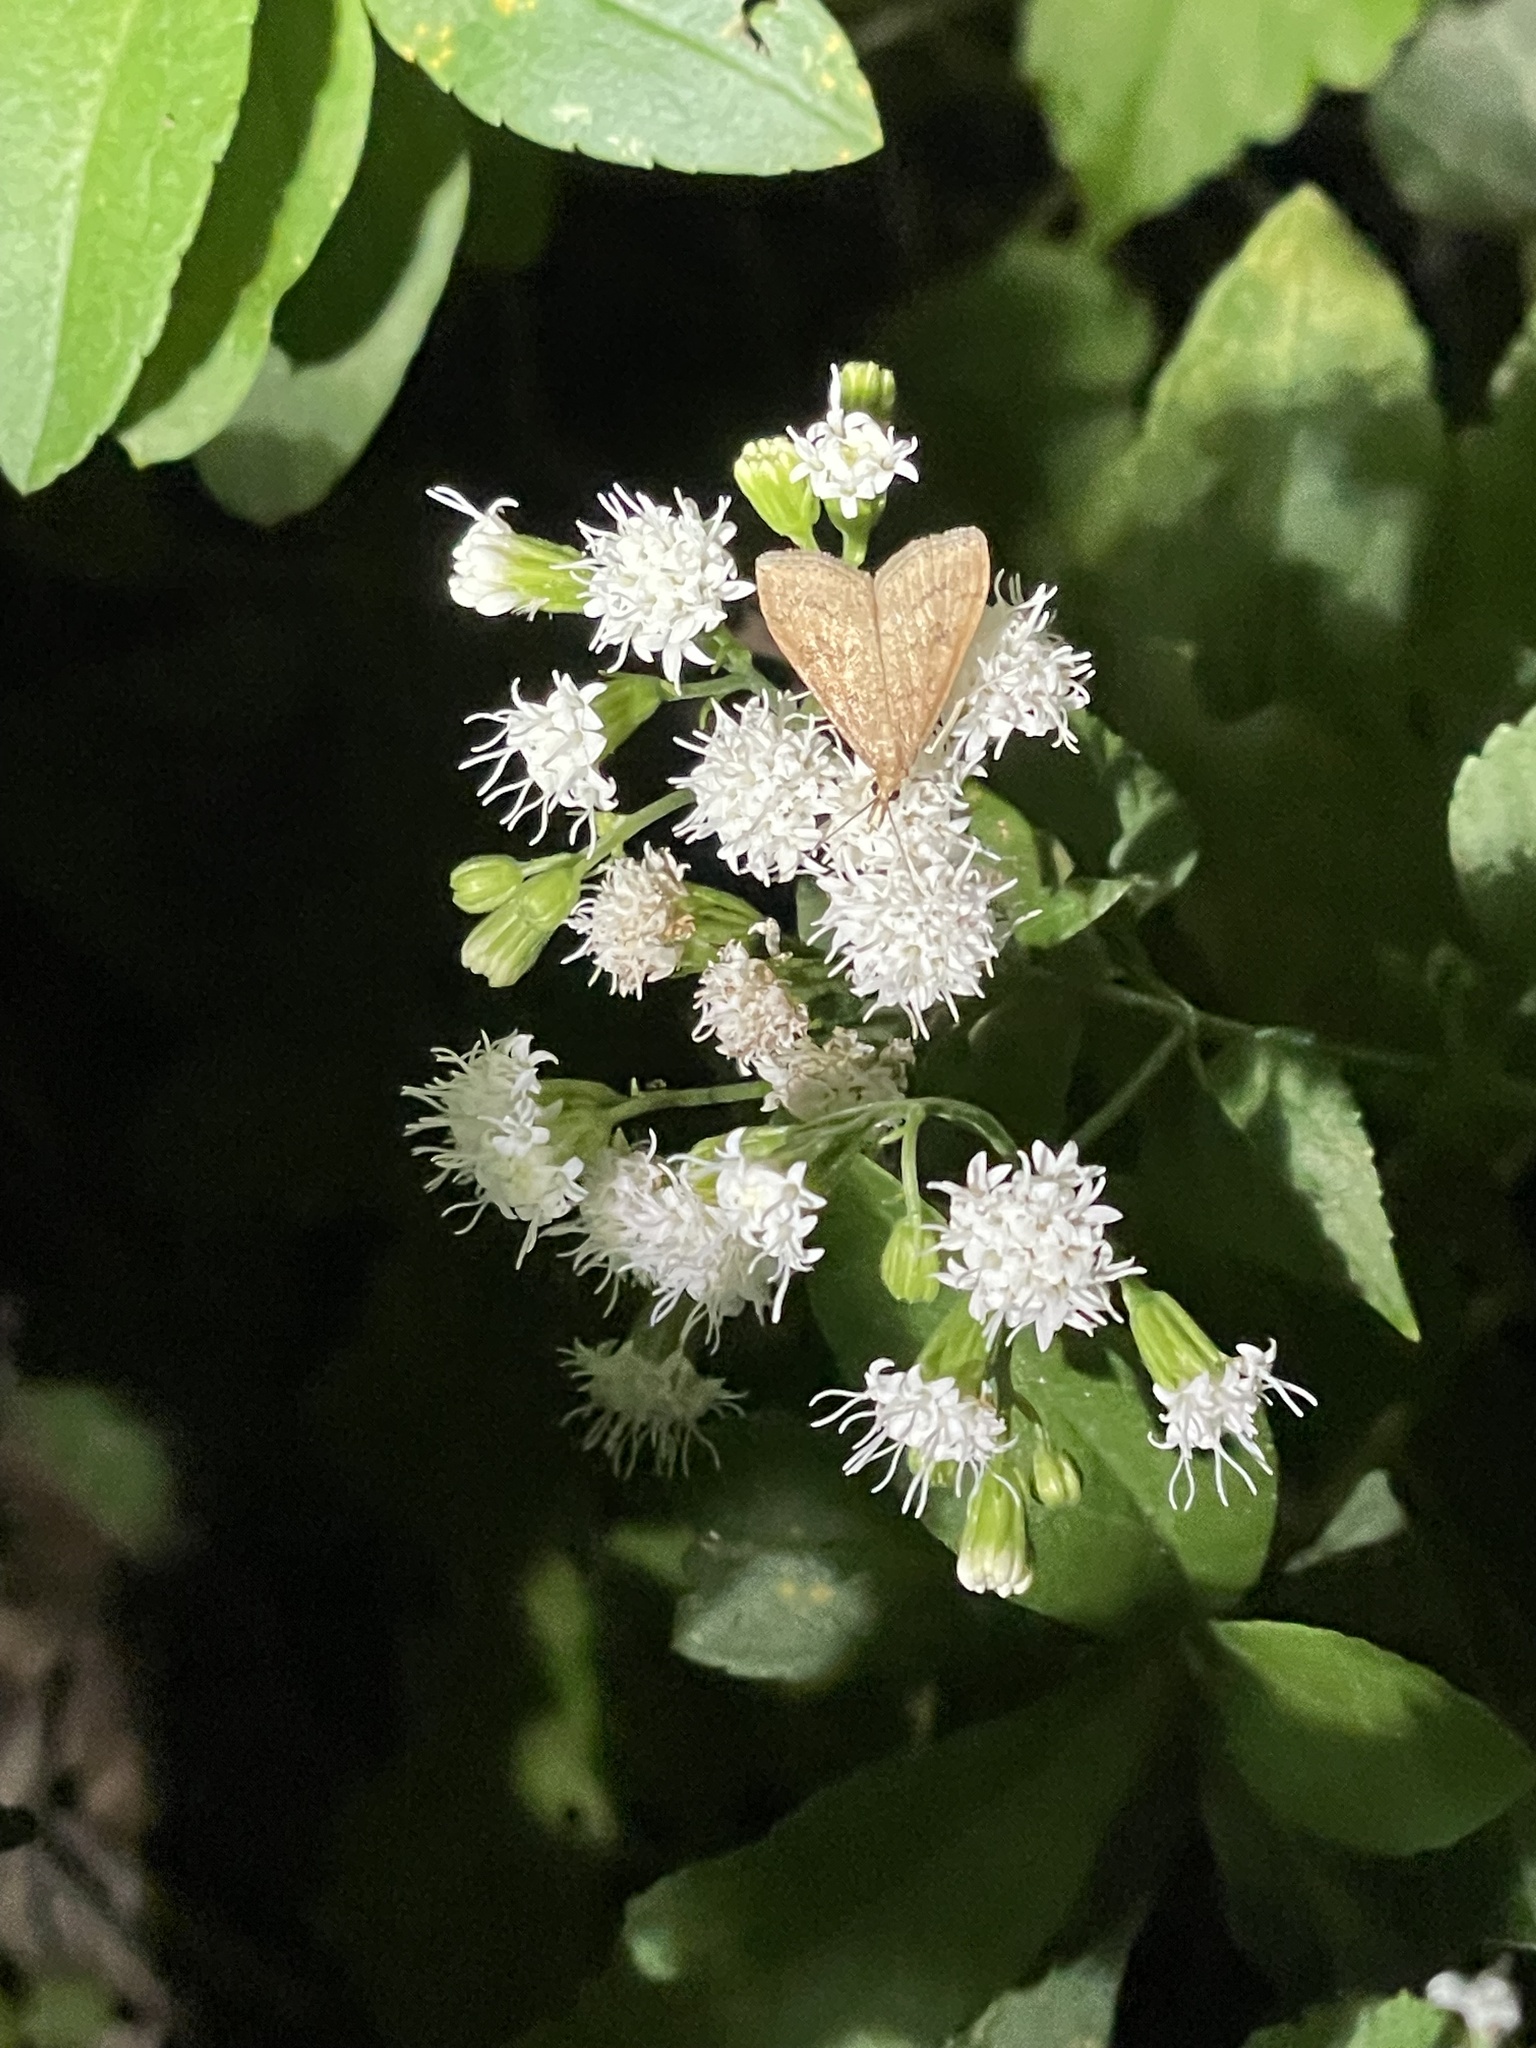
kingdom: Animalia
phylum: Arthropoda
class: Insecta
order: Lepidoptera
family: Crambidae
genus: Udea
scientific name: Udea rubigalis
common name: Celery leaftier moth
